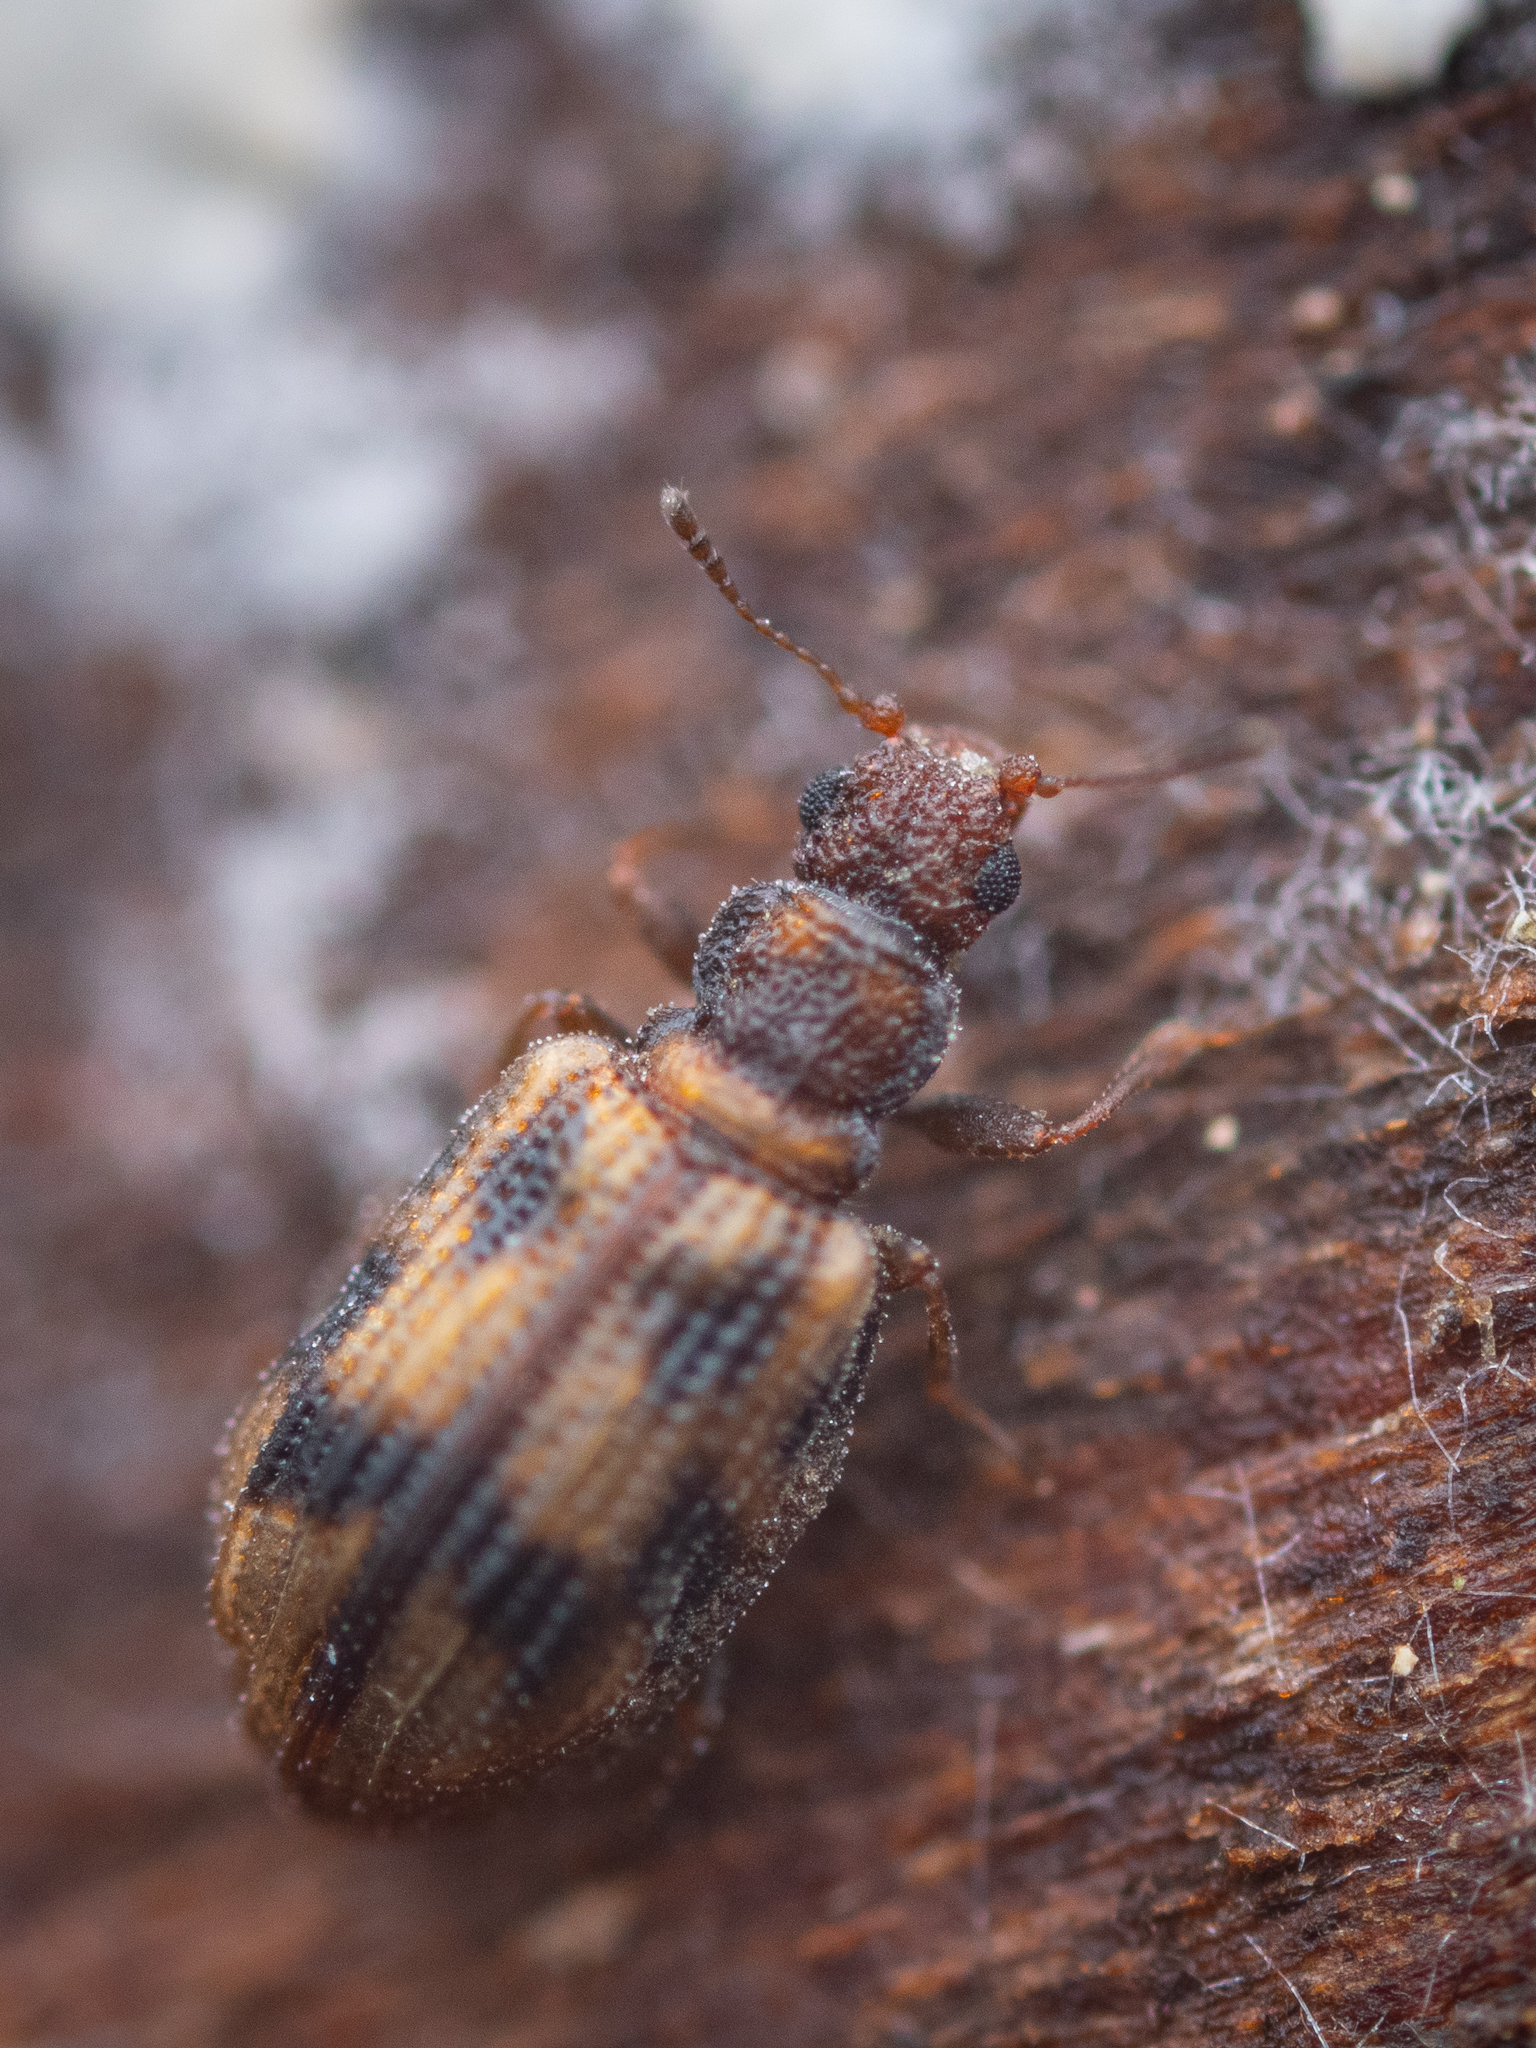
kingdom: Animalia
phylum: Arthropoda
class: Insecta
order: Coleoptera
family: Latridiidae
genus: Cartodere
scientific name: Cartodere bifasciata
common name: Plaster beetle
